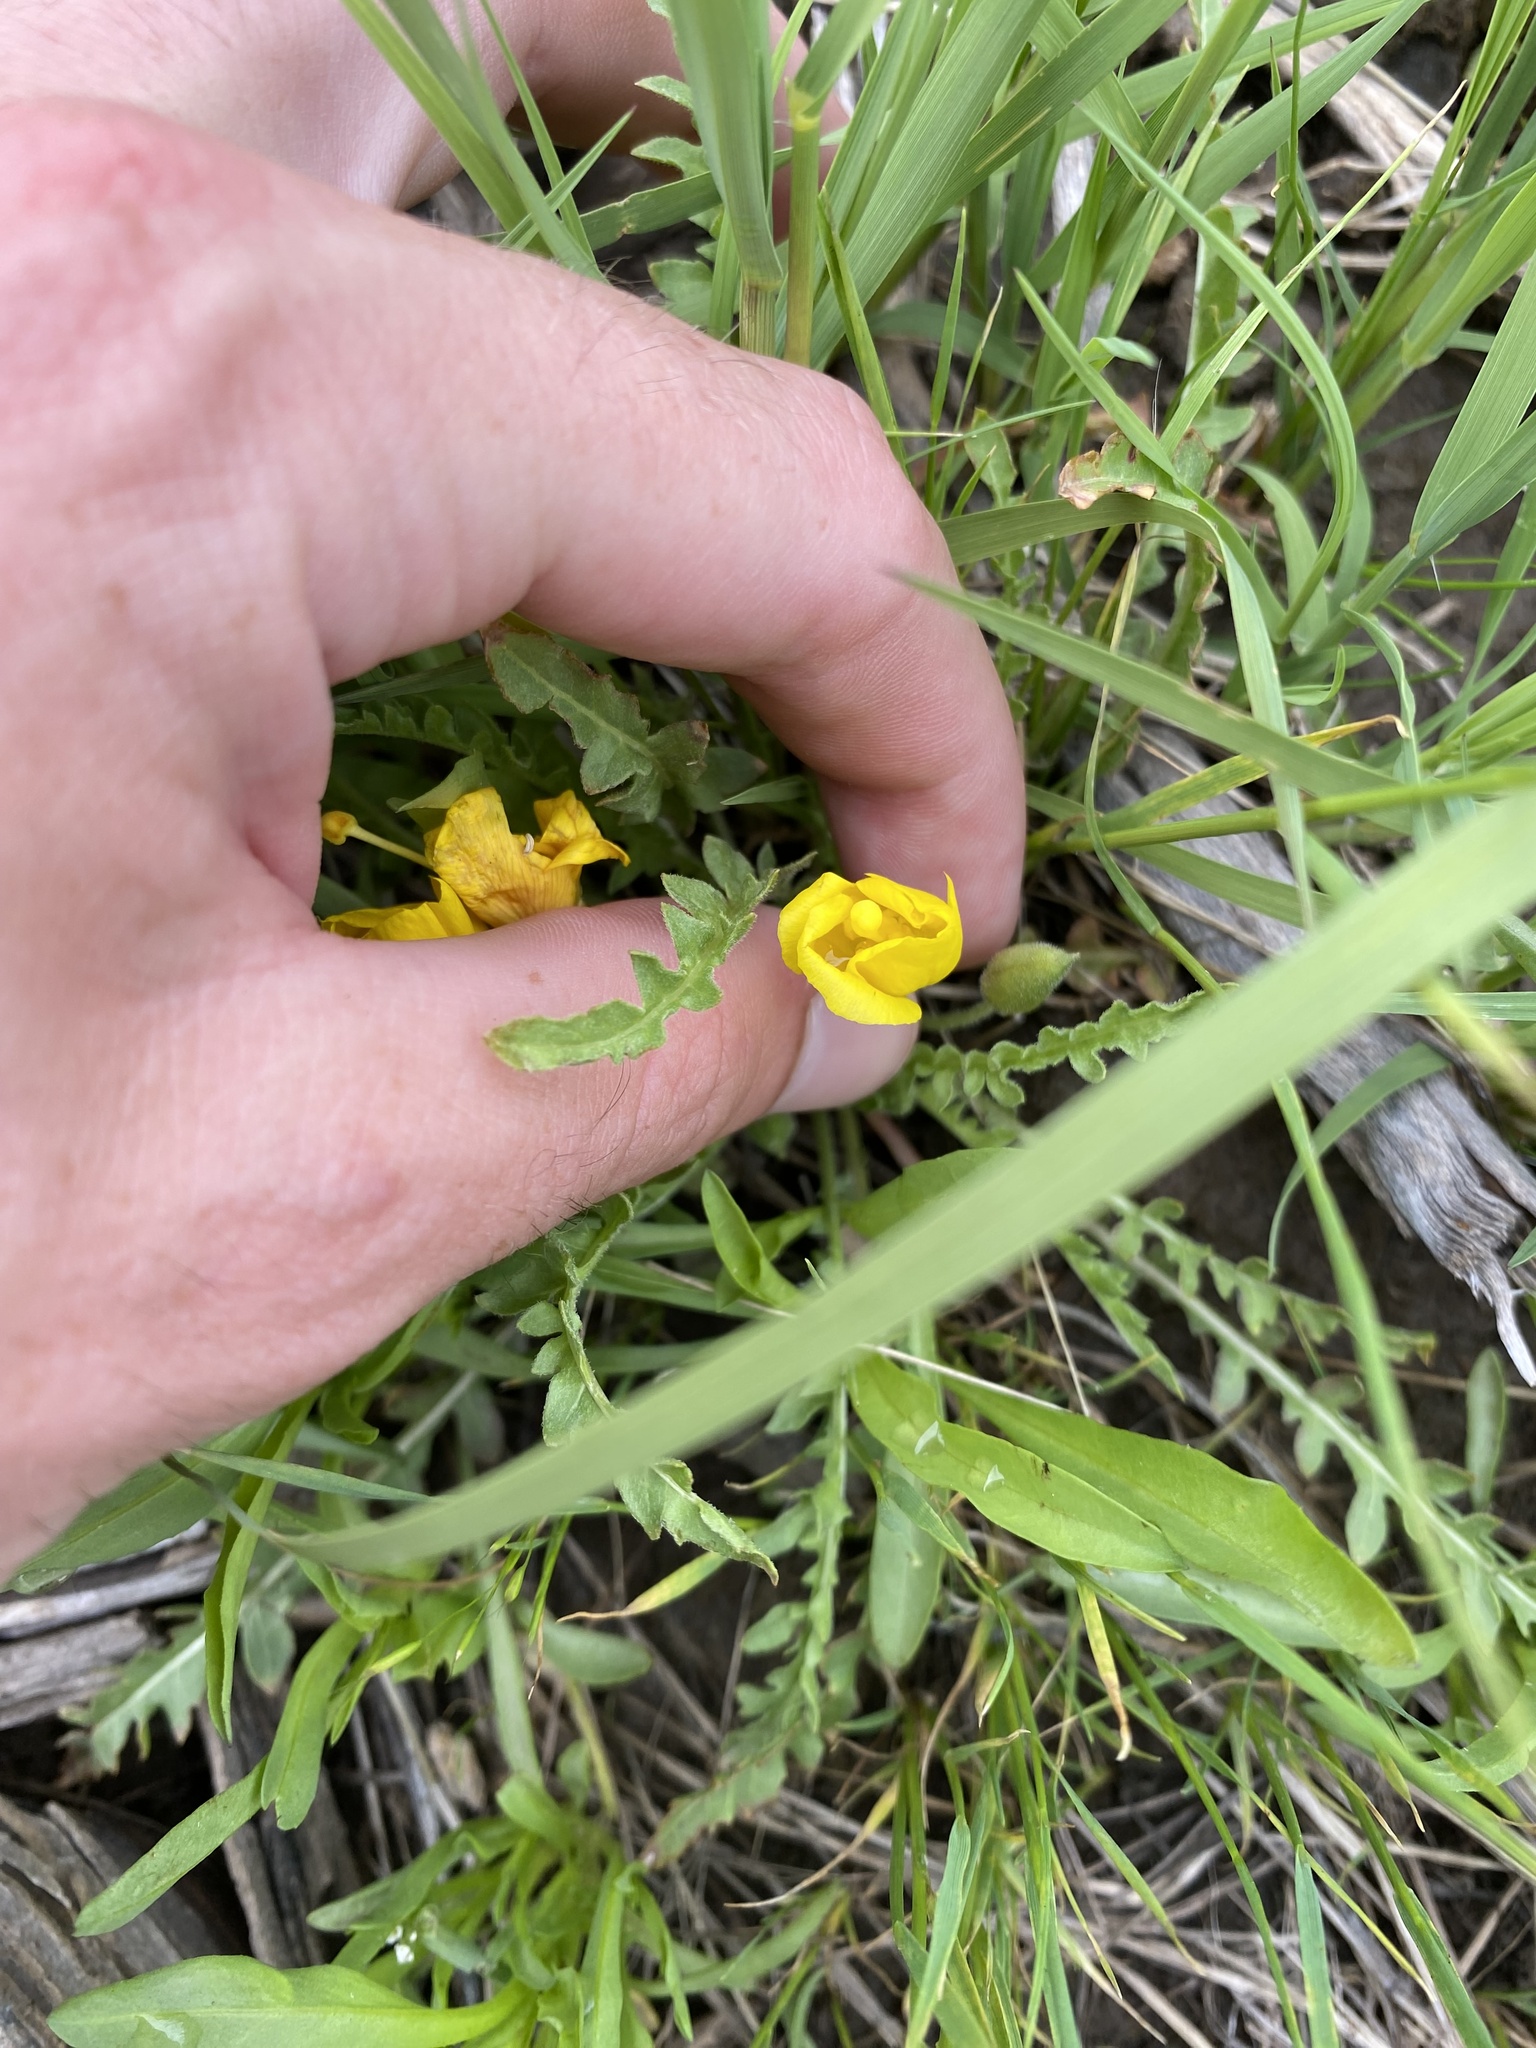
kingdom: Plantae
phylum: Tracheophyta
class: Magnoliopsida
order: Myrtales
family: Onagraceae
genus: Taraxia
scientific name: Taraxia tanacetifolia
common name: Tansyleaf evening primrose
